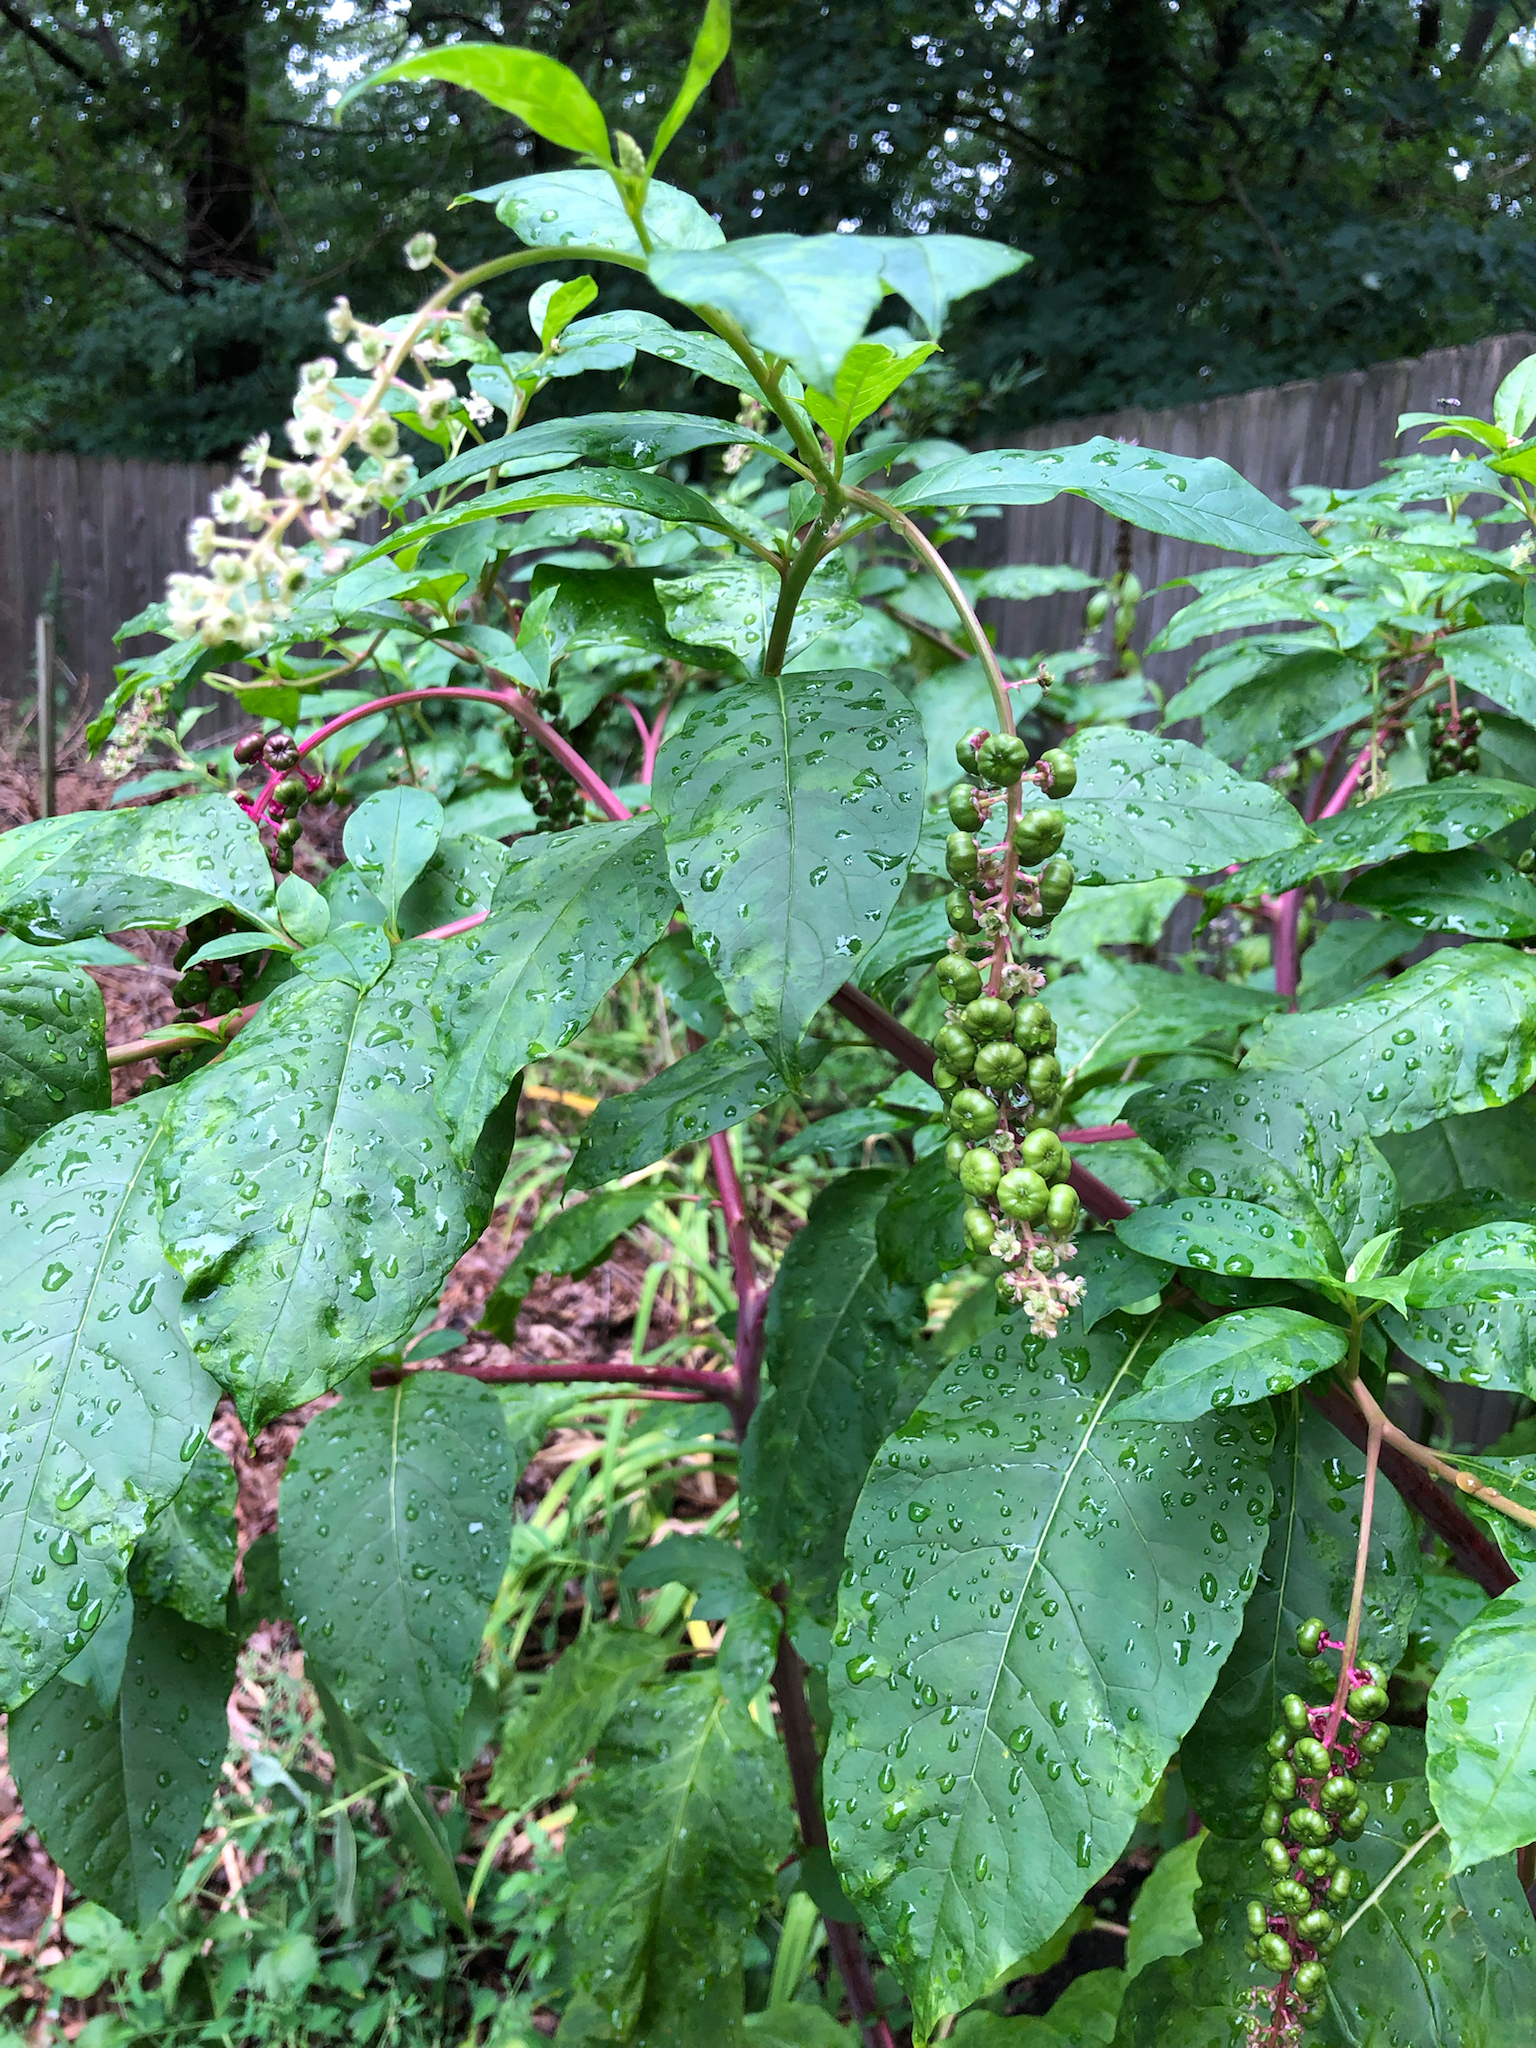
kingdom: Plantae
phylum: Tracheophyta
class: Magnoliopsida
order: Caryophyllales
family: Phytolaccaceae
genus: Phytolacca
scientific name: Phytolacca americana
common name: American pokeweed
